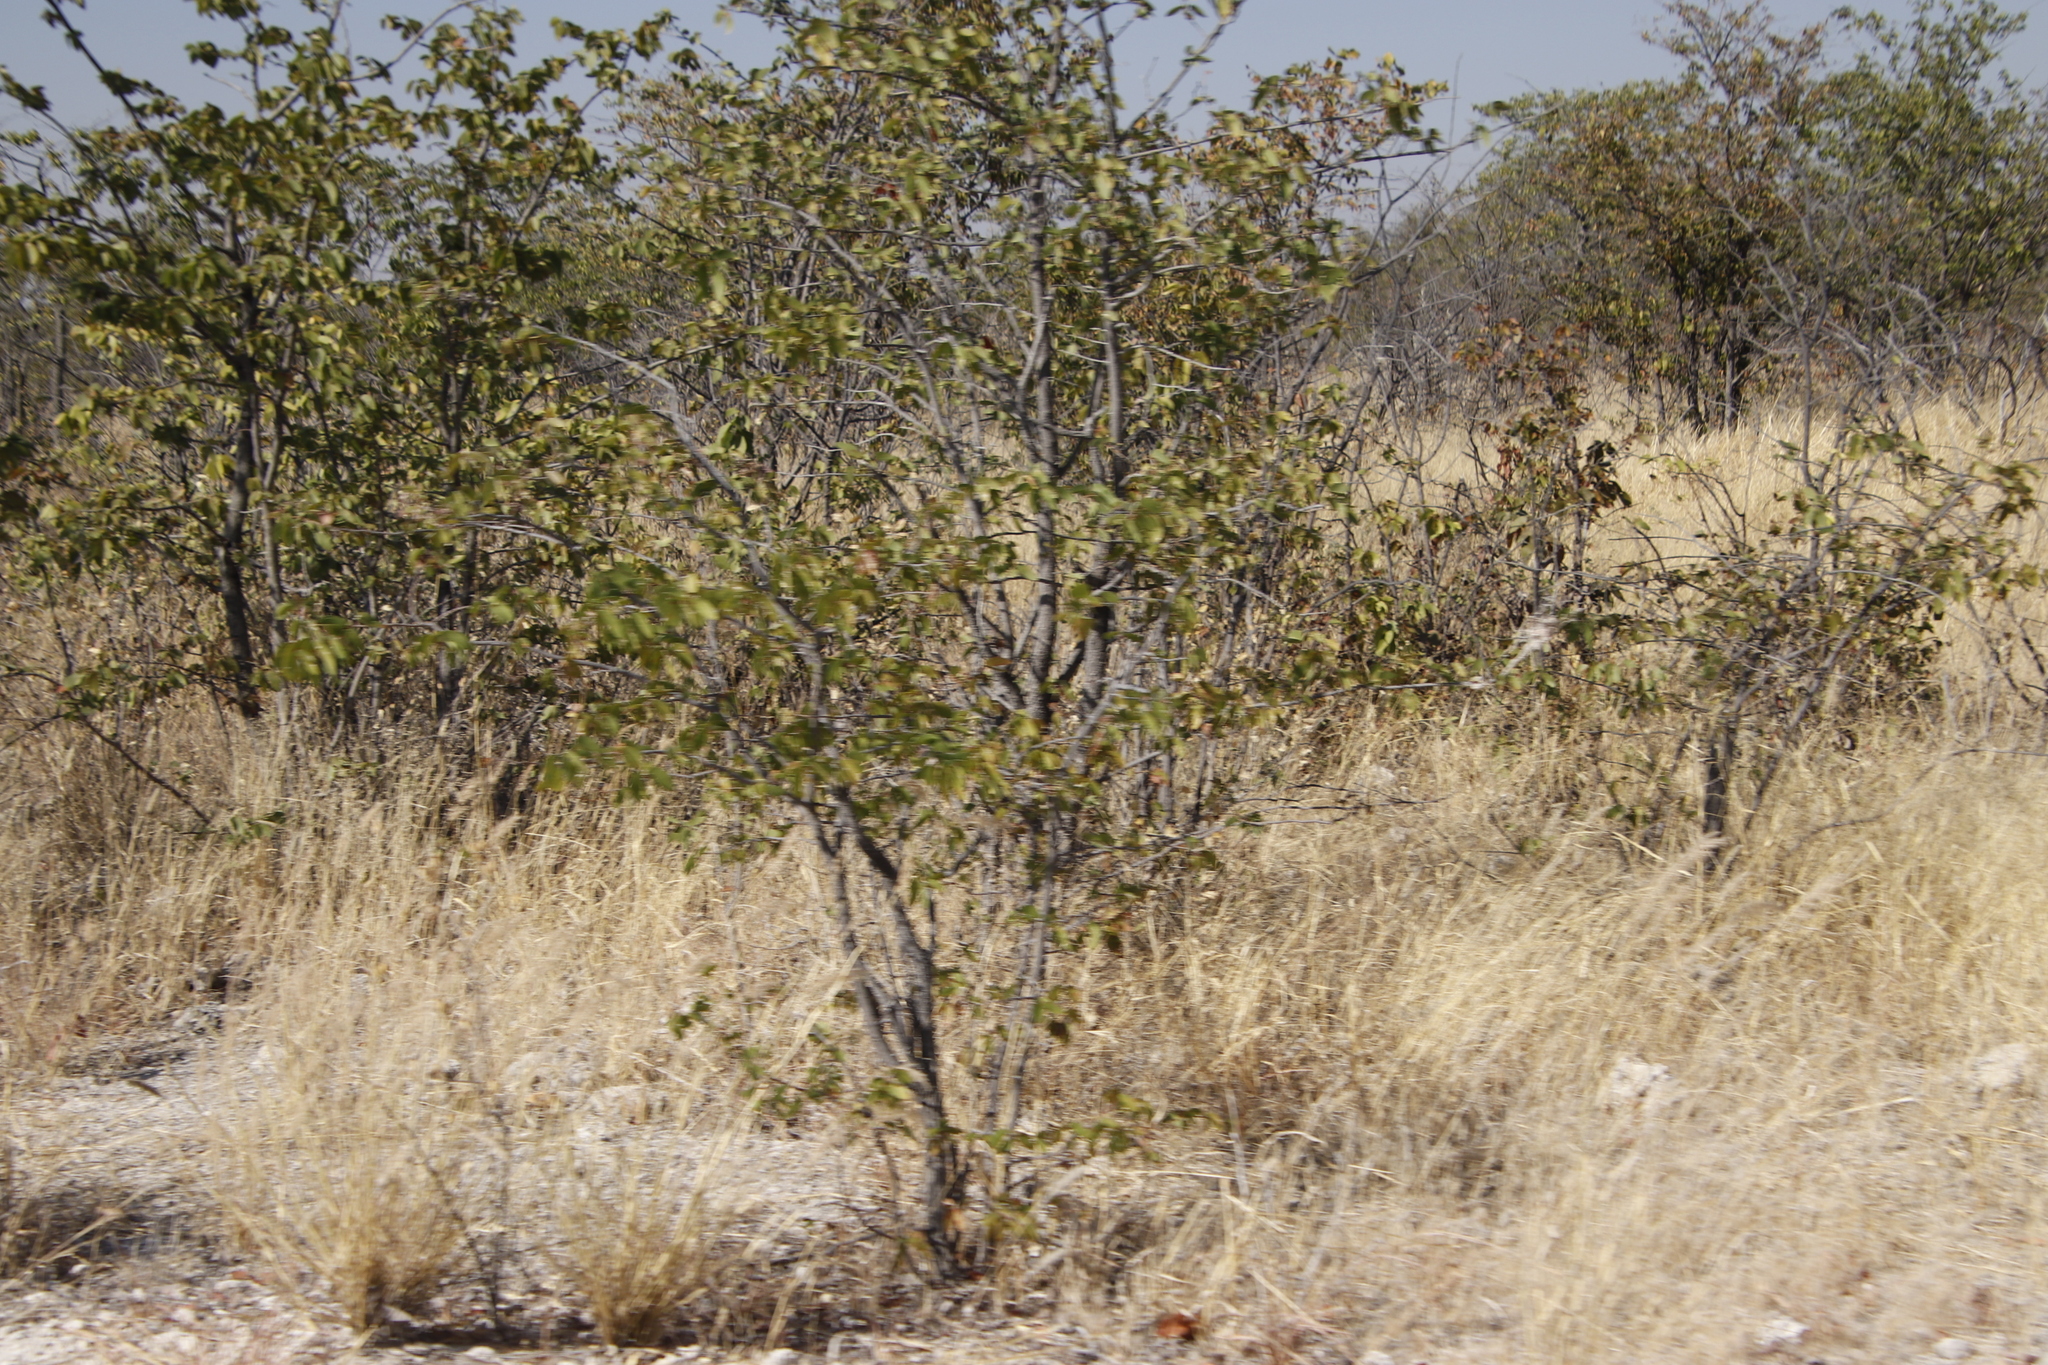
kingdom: Plantae
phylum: Tracheophyta
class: Magnoliopsida
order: Fabales
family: Fabaceae
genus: Colophospermum
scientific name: Colophospermum mopane
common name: Mopane
